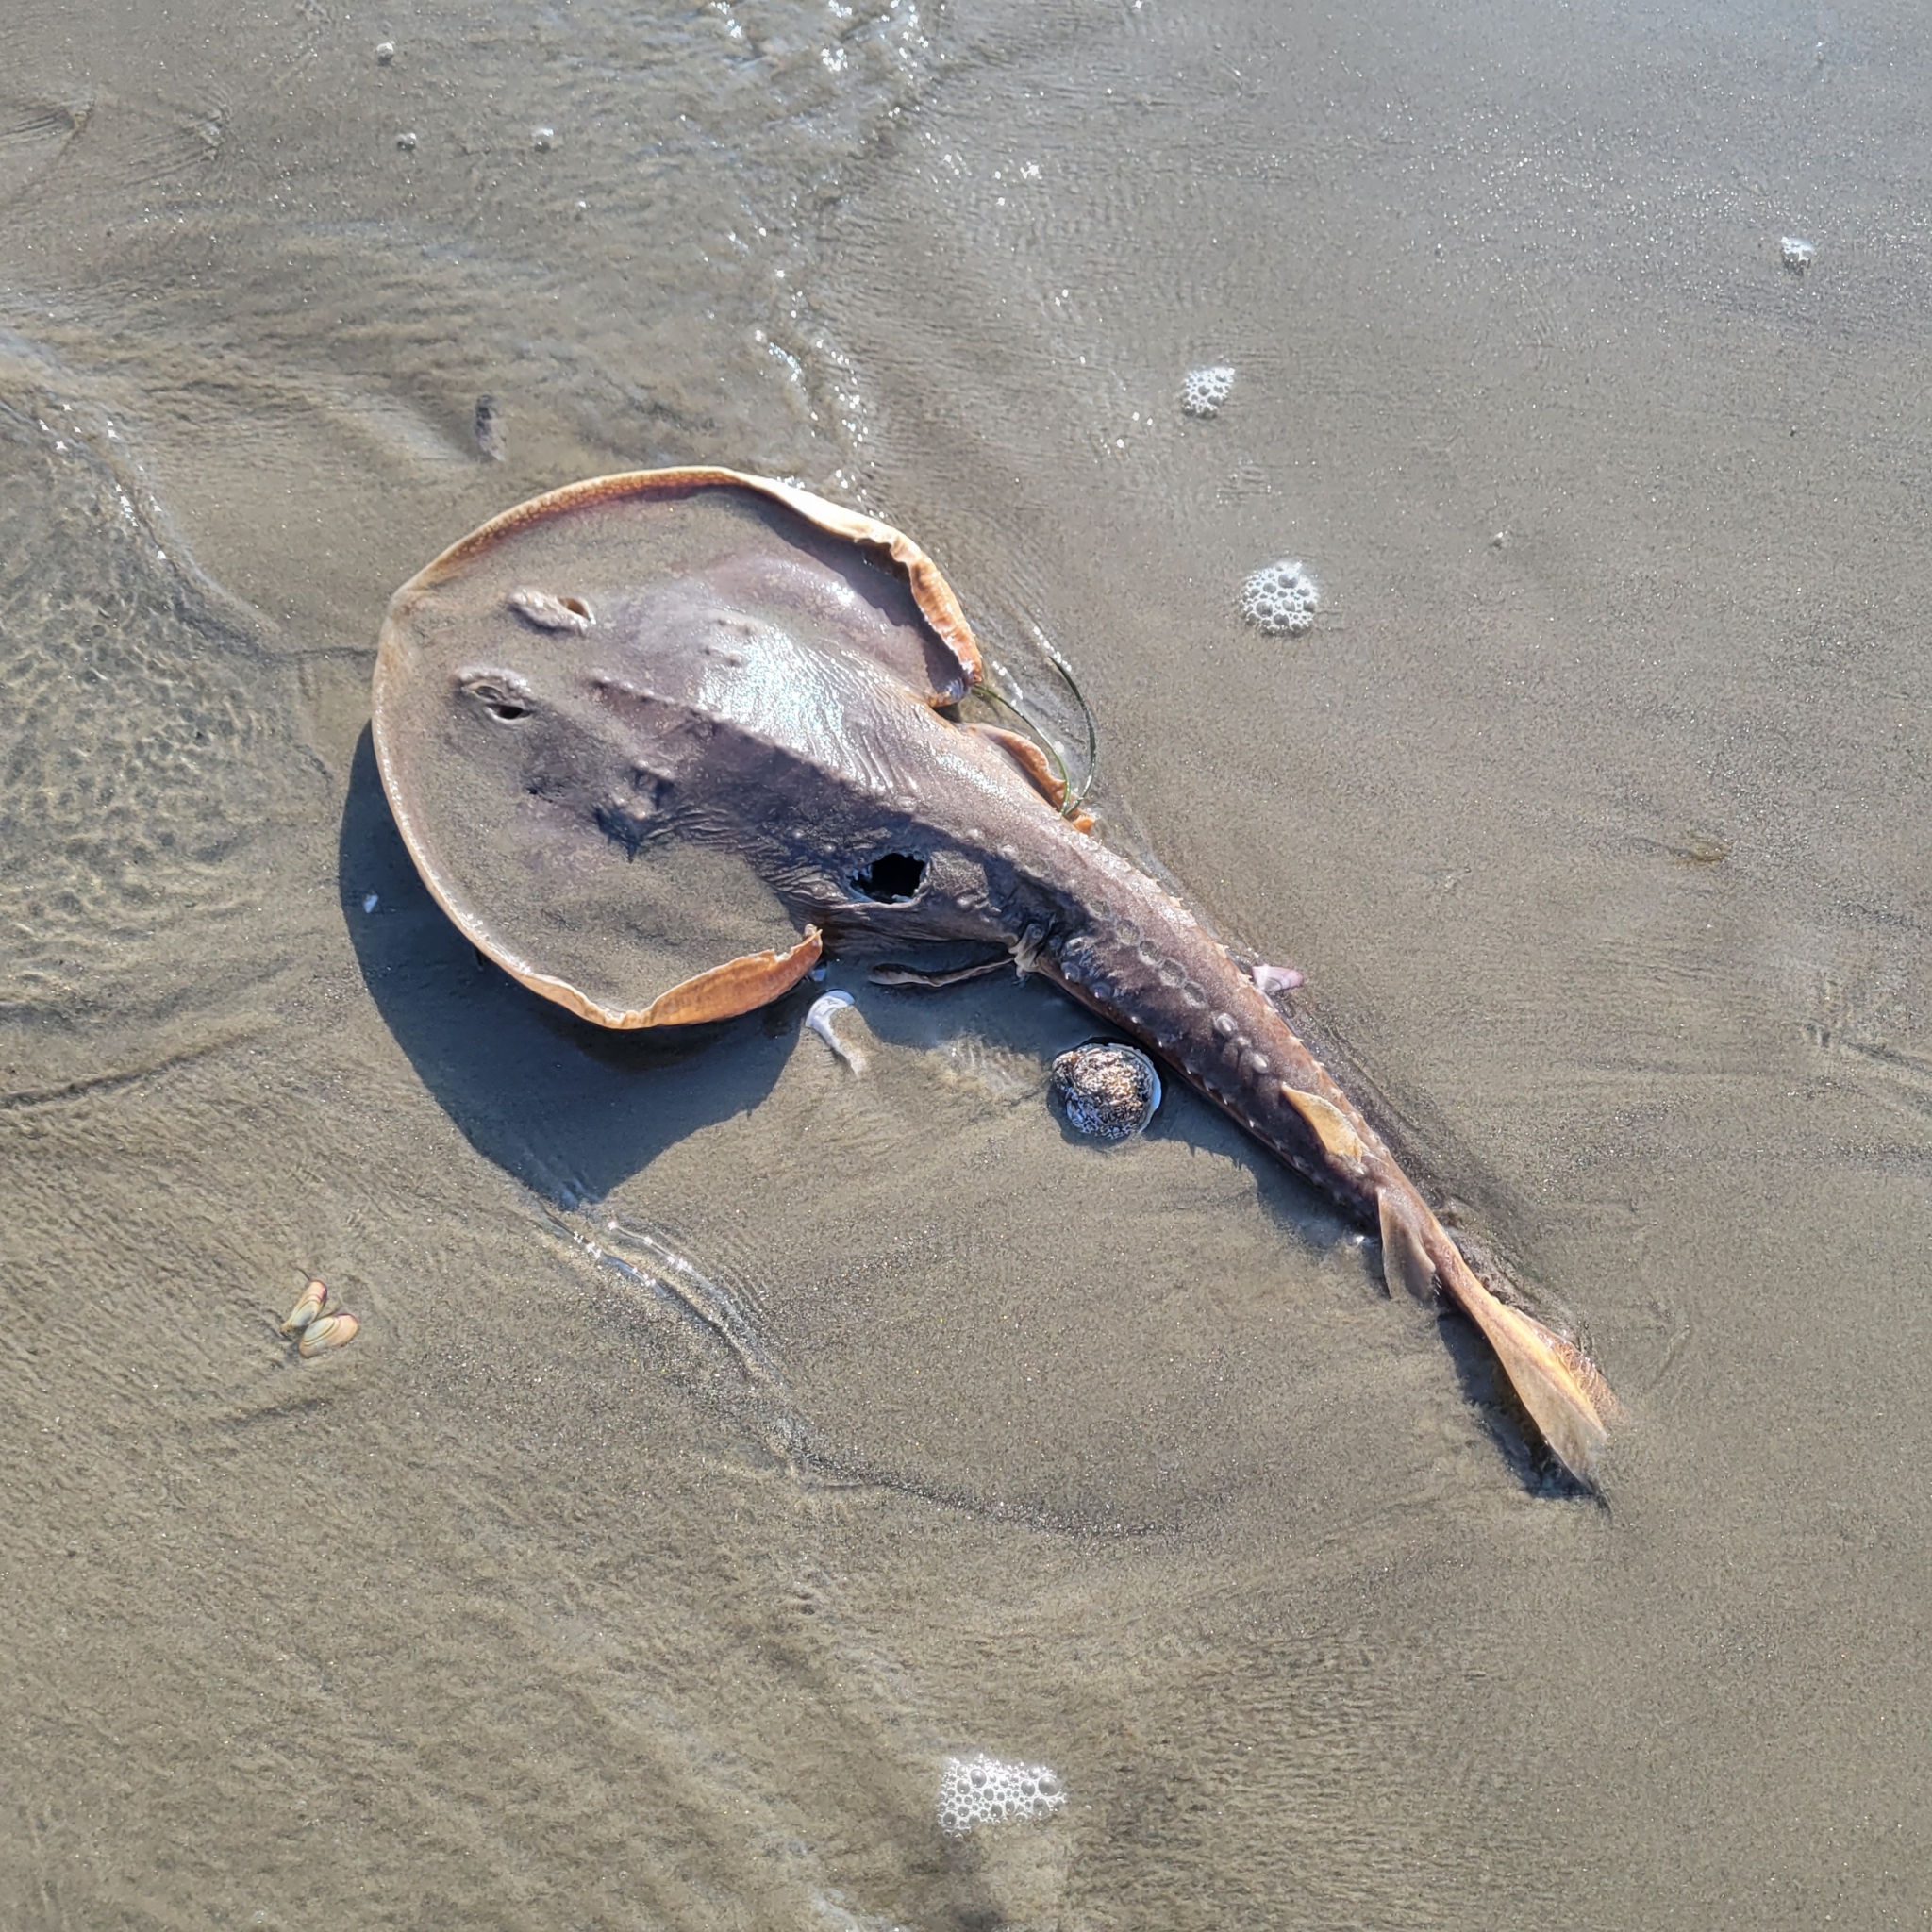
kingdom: Animalia
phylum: Chordata
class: Elasmobranchii
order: Rhinopristiformes
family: Rhinobatidae
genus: Platyrhinoidis
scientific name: Platyrhinoidis triseriata
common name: Thornback
